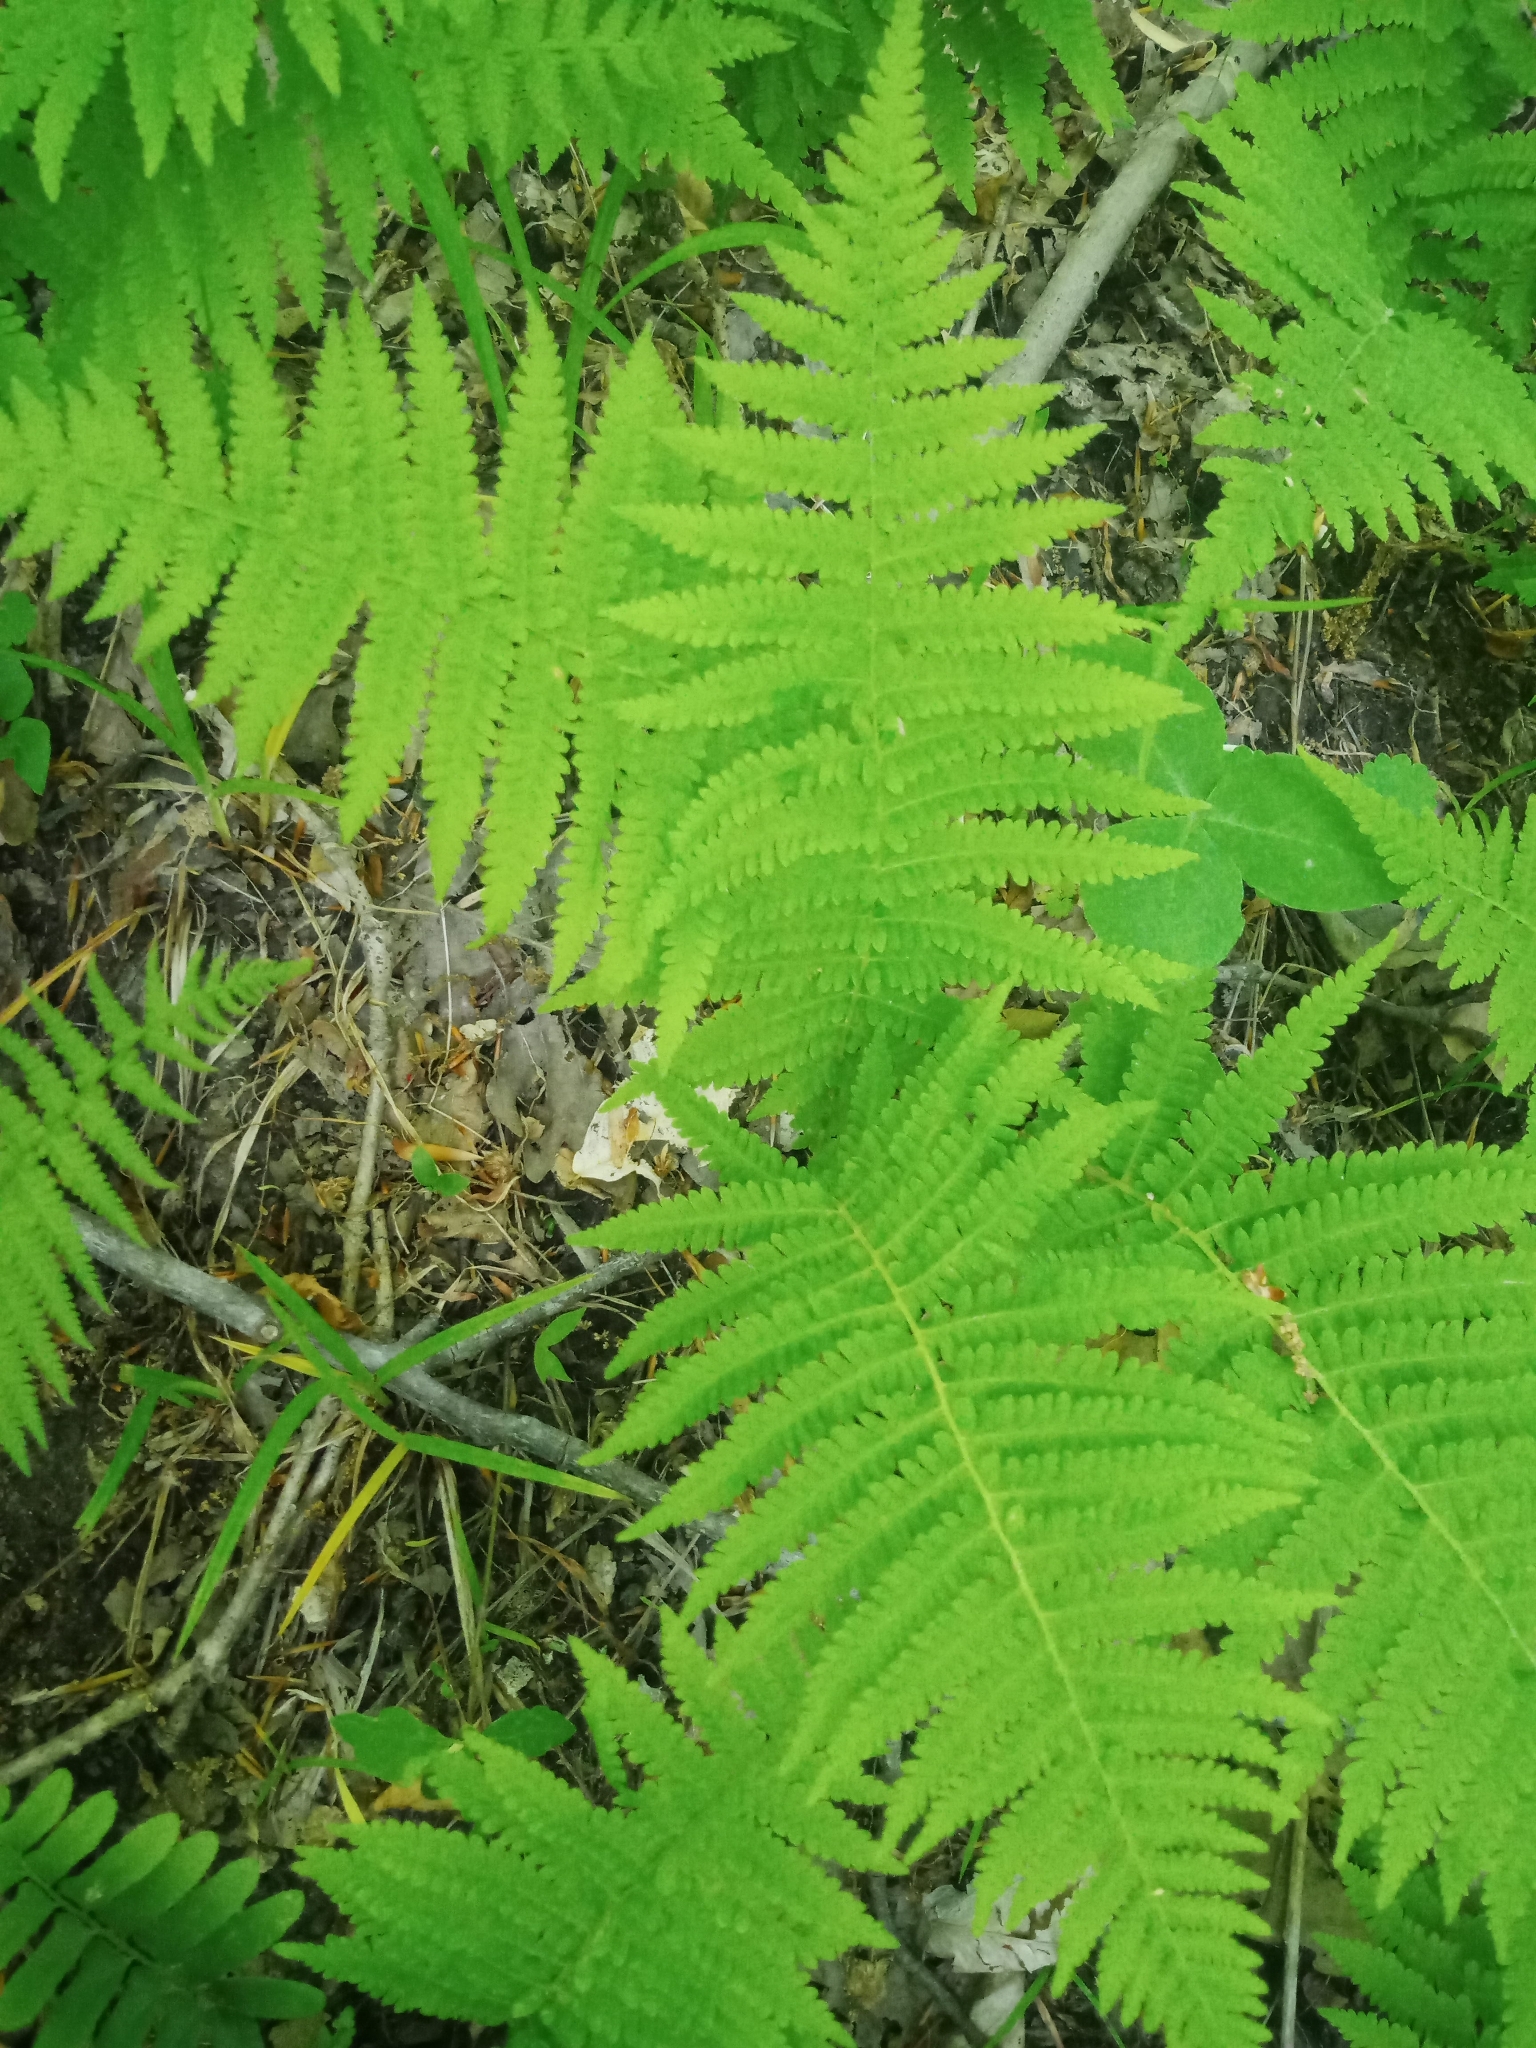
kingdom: Plantae
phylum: Tracheophyta
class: Polypodiopsida
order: Polypodiales
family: Thelypteridaceae
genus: Amauropelta
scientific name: Amauropelta noveboracensis
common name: New york fern
